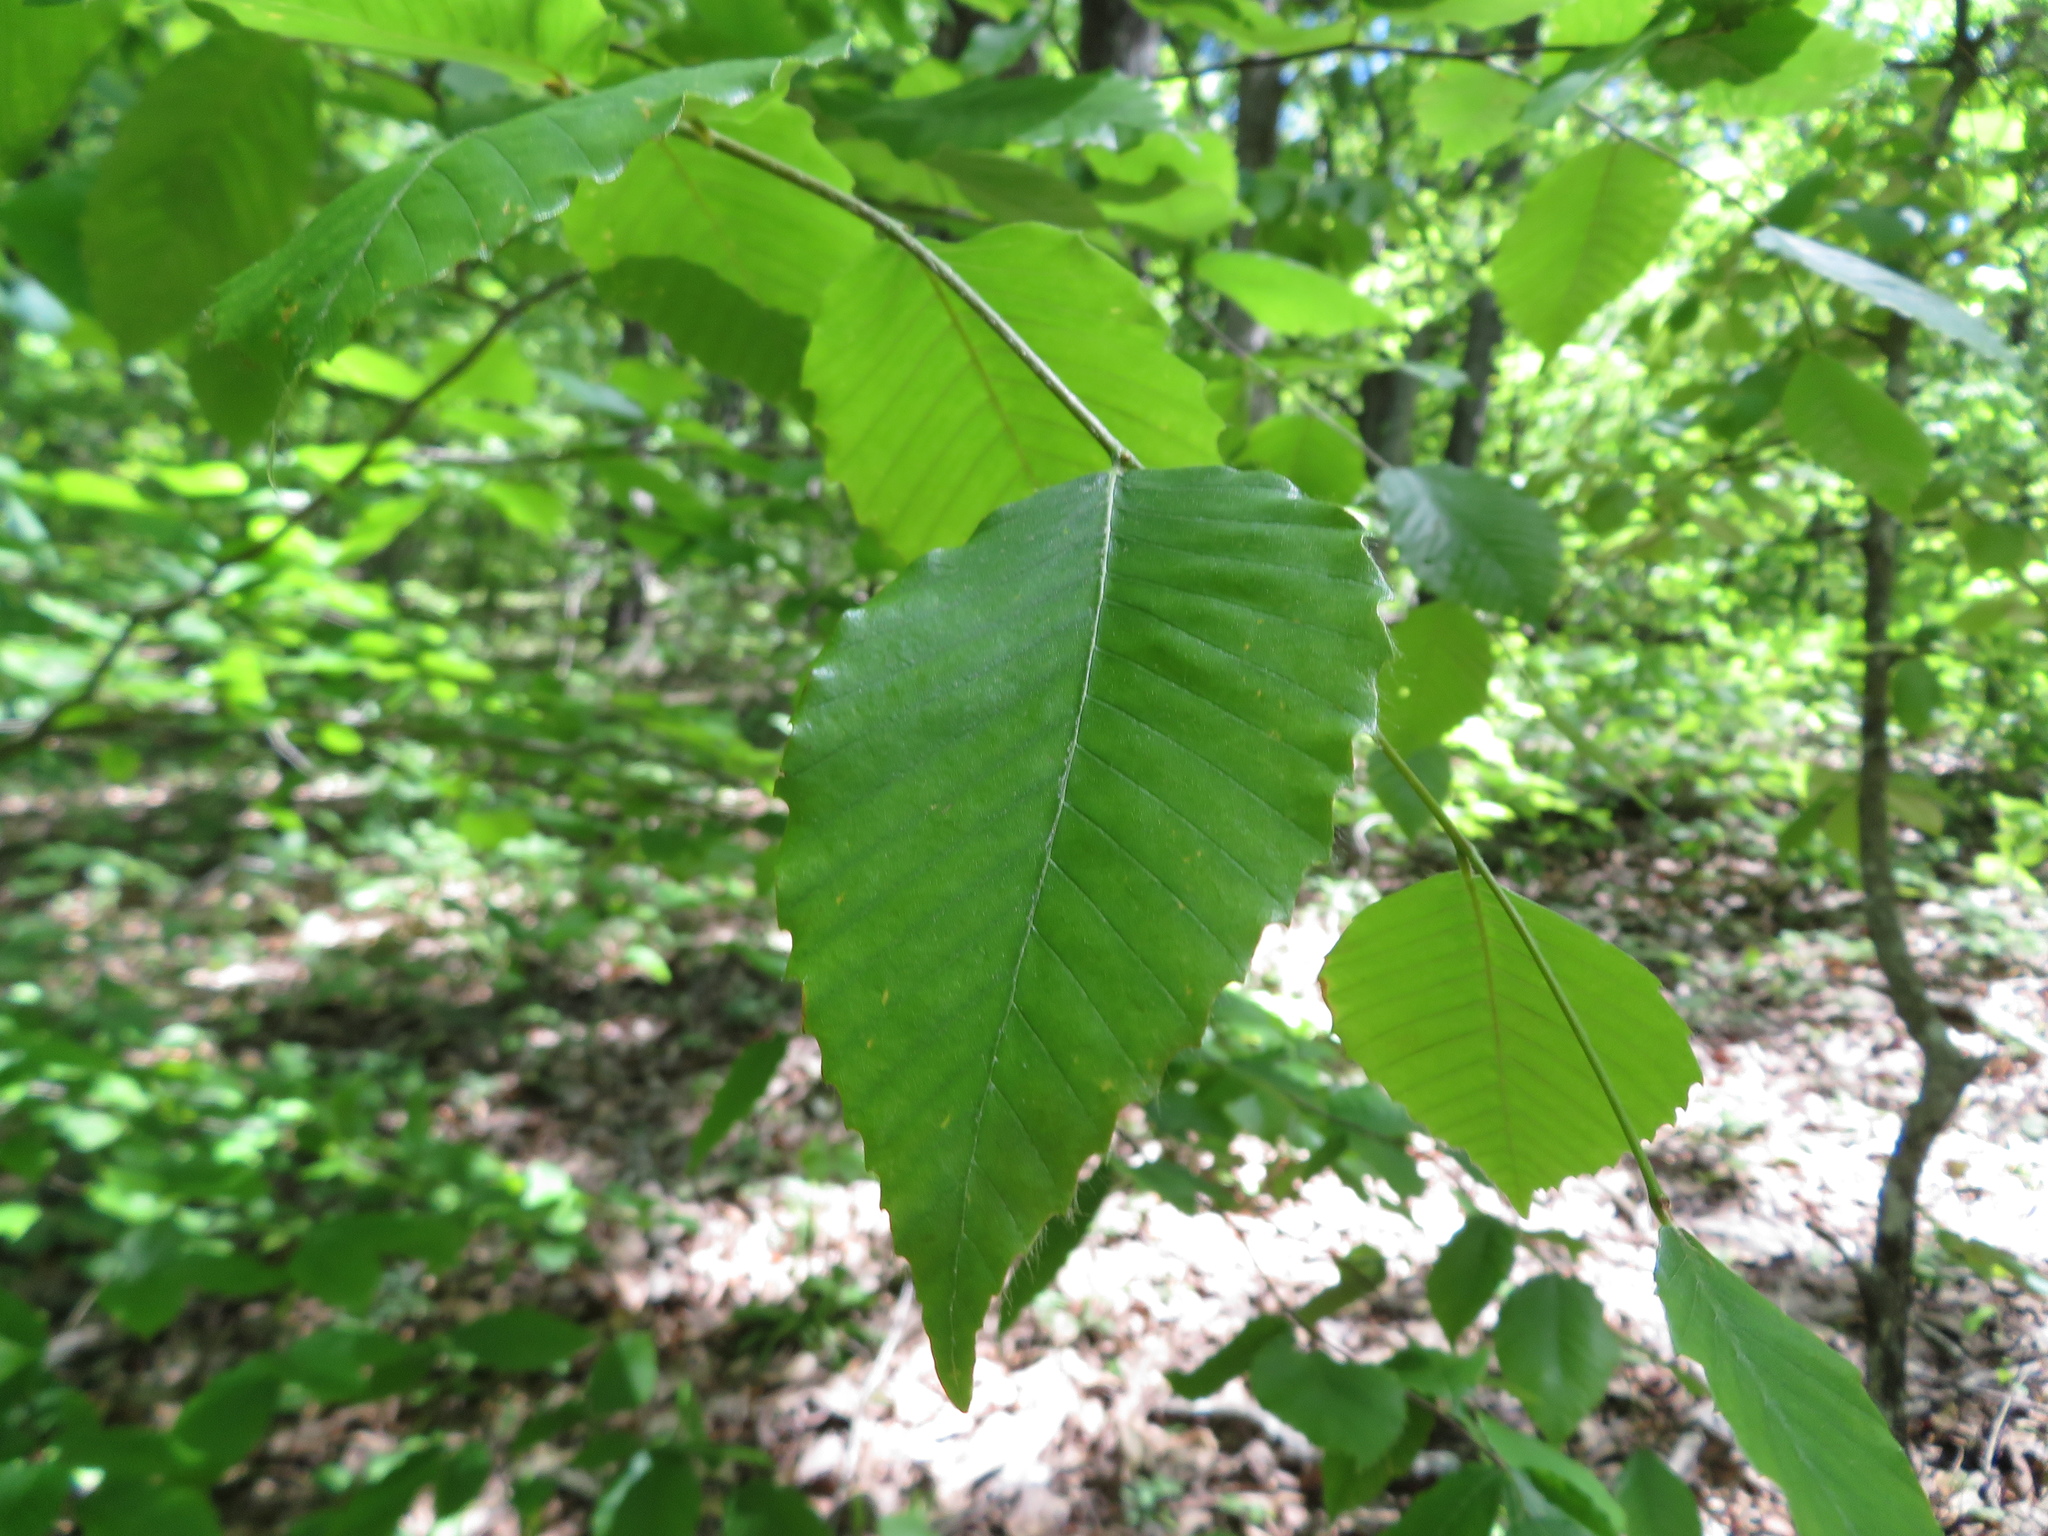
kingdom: Plantae
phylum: Tracheophyta
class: Magnoliopsida
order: Fagales
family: Fagaceae
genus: Fagus
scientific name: Fagus grandifolia
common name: American beech
